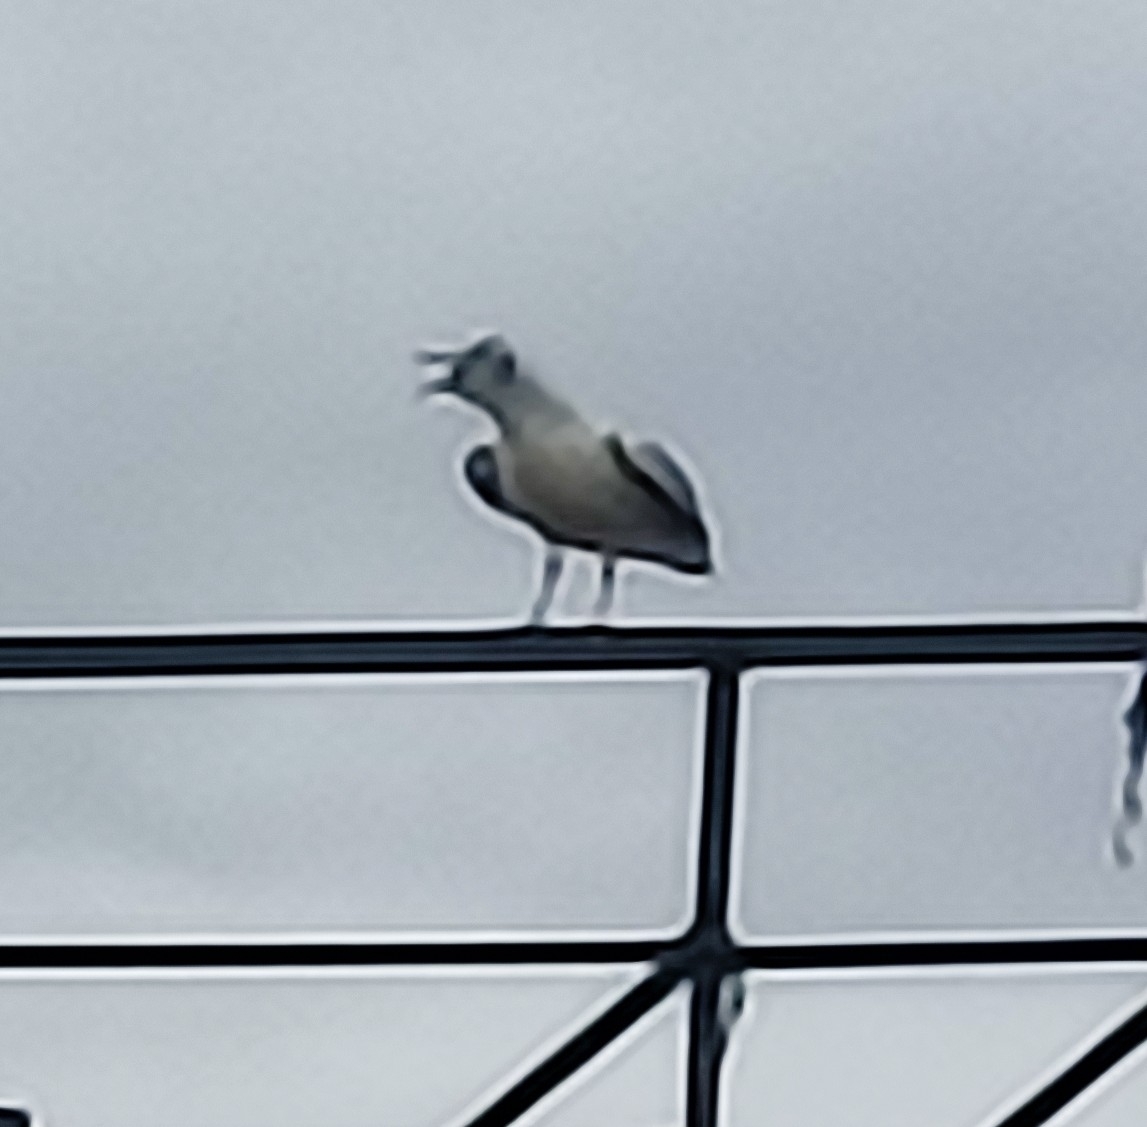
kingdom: Animalia
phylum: Chordata
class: Aves
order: Charadriiformes
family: Laridae
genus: Chroicocephalus
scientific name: Chroicocephalus ridibundus
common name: Black-headed gull
